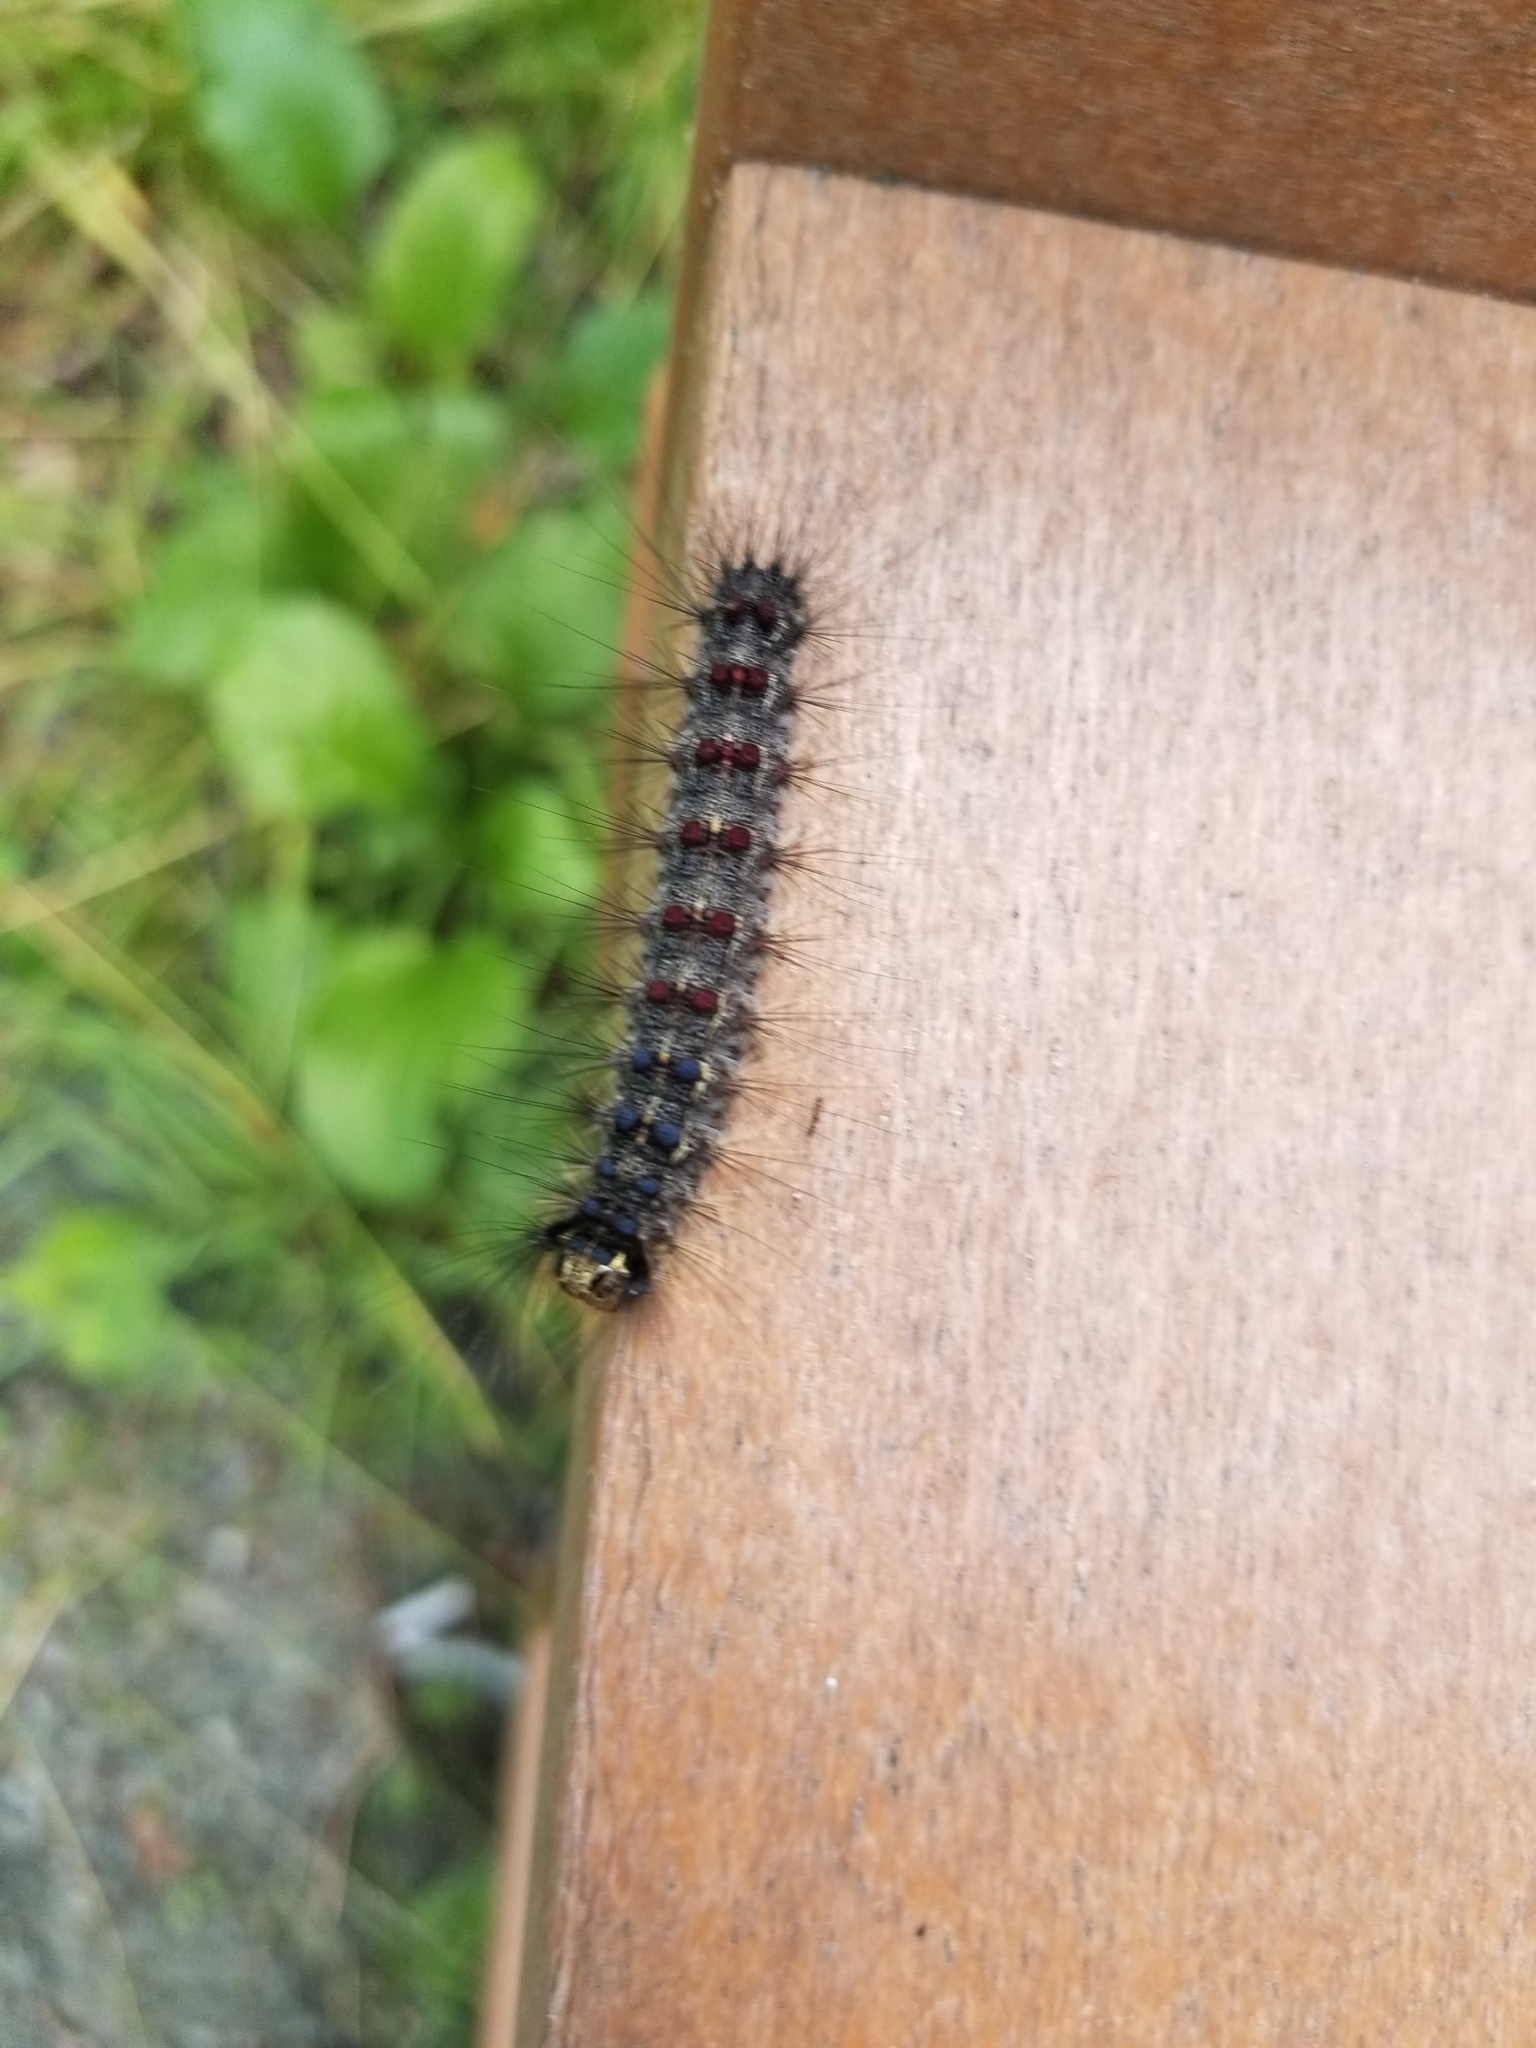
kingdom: Animalia
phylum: Arthropoda
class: Insecta
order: Lepidoptera
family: Erebidae
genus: Lymantria
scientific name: Lymantria dispar
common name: Gypsy moth
